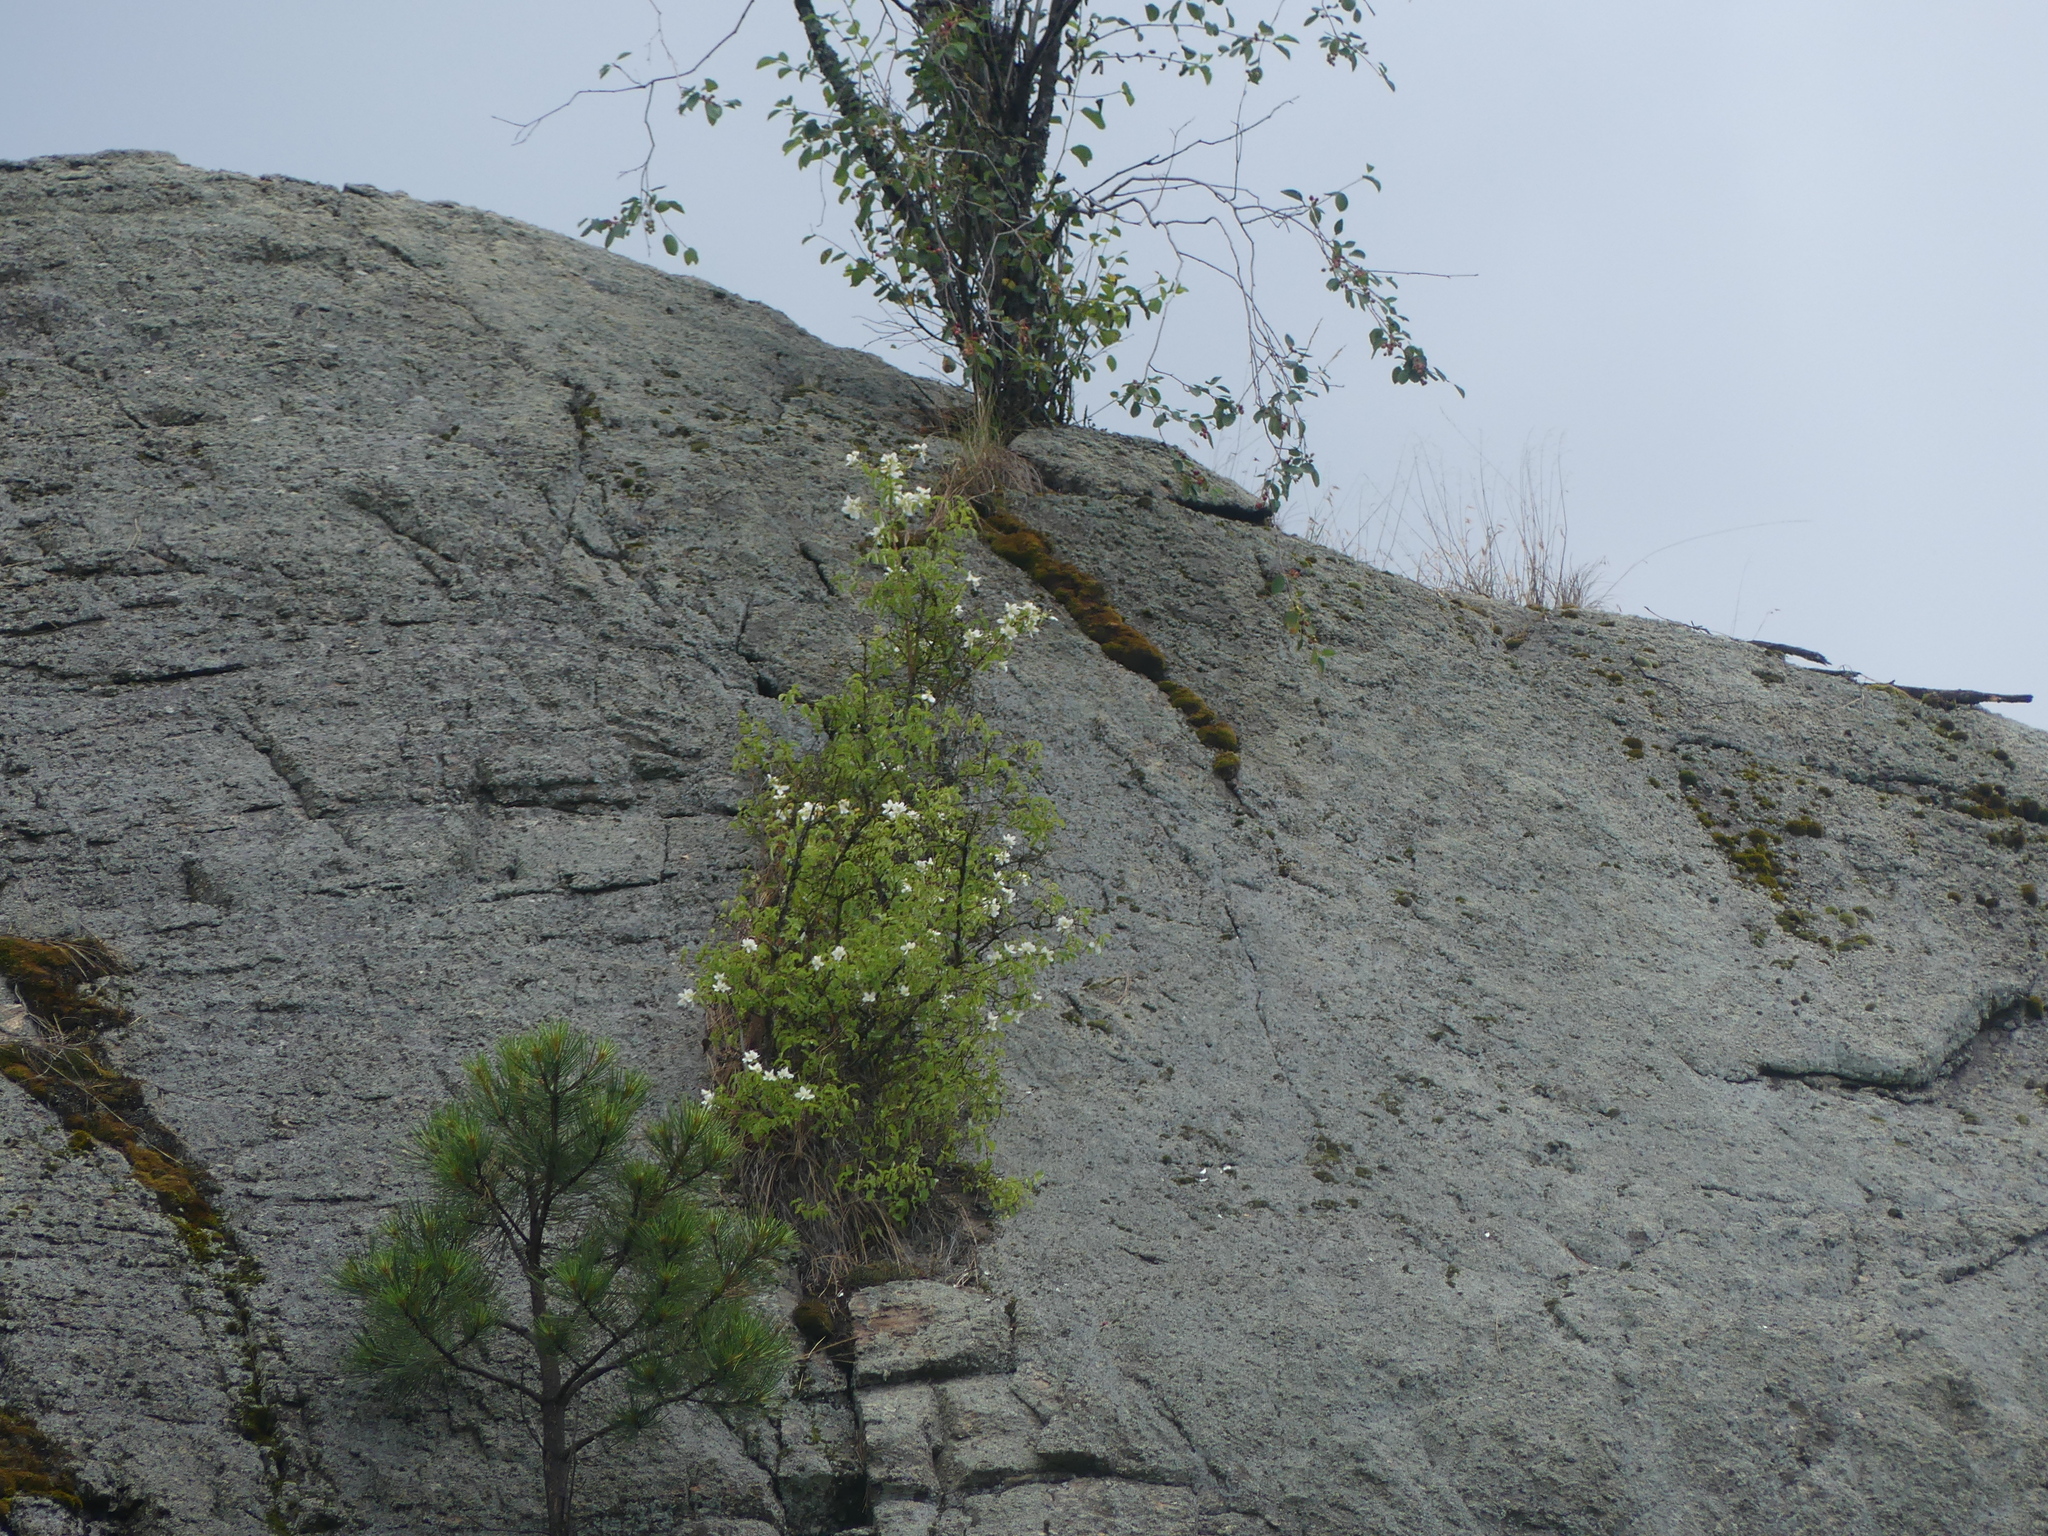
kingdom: Plantae
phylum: Tracheophyta
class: Magnoliopsida
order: Cornales
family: Hydrangeaceae
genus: Philadelphus
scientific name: Philadelphus lewisii
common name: Lewis's mock orange
